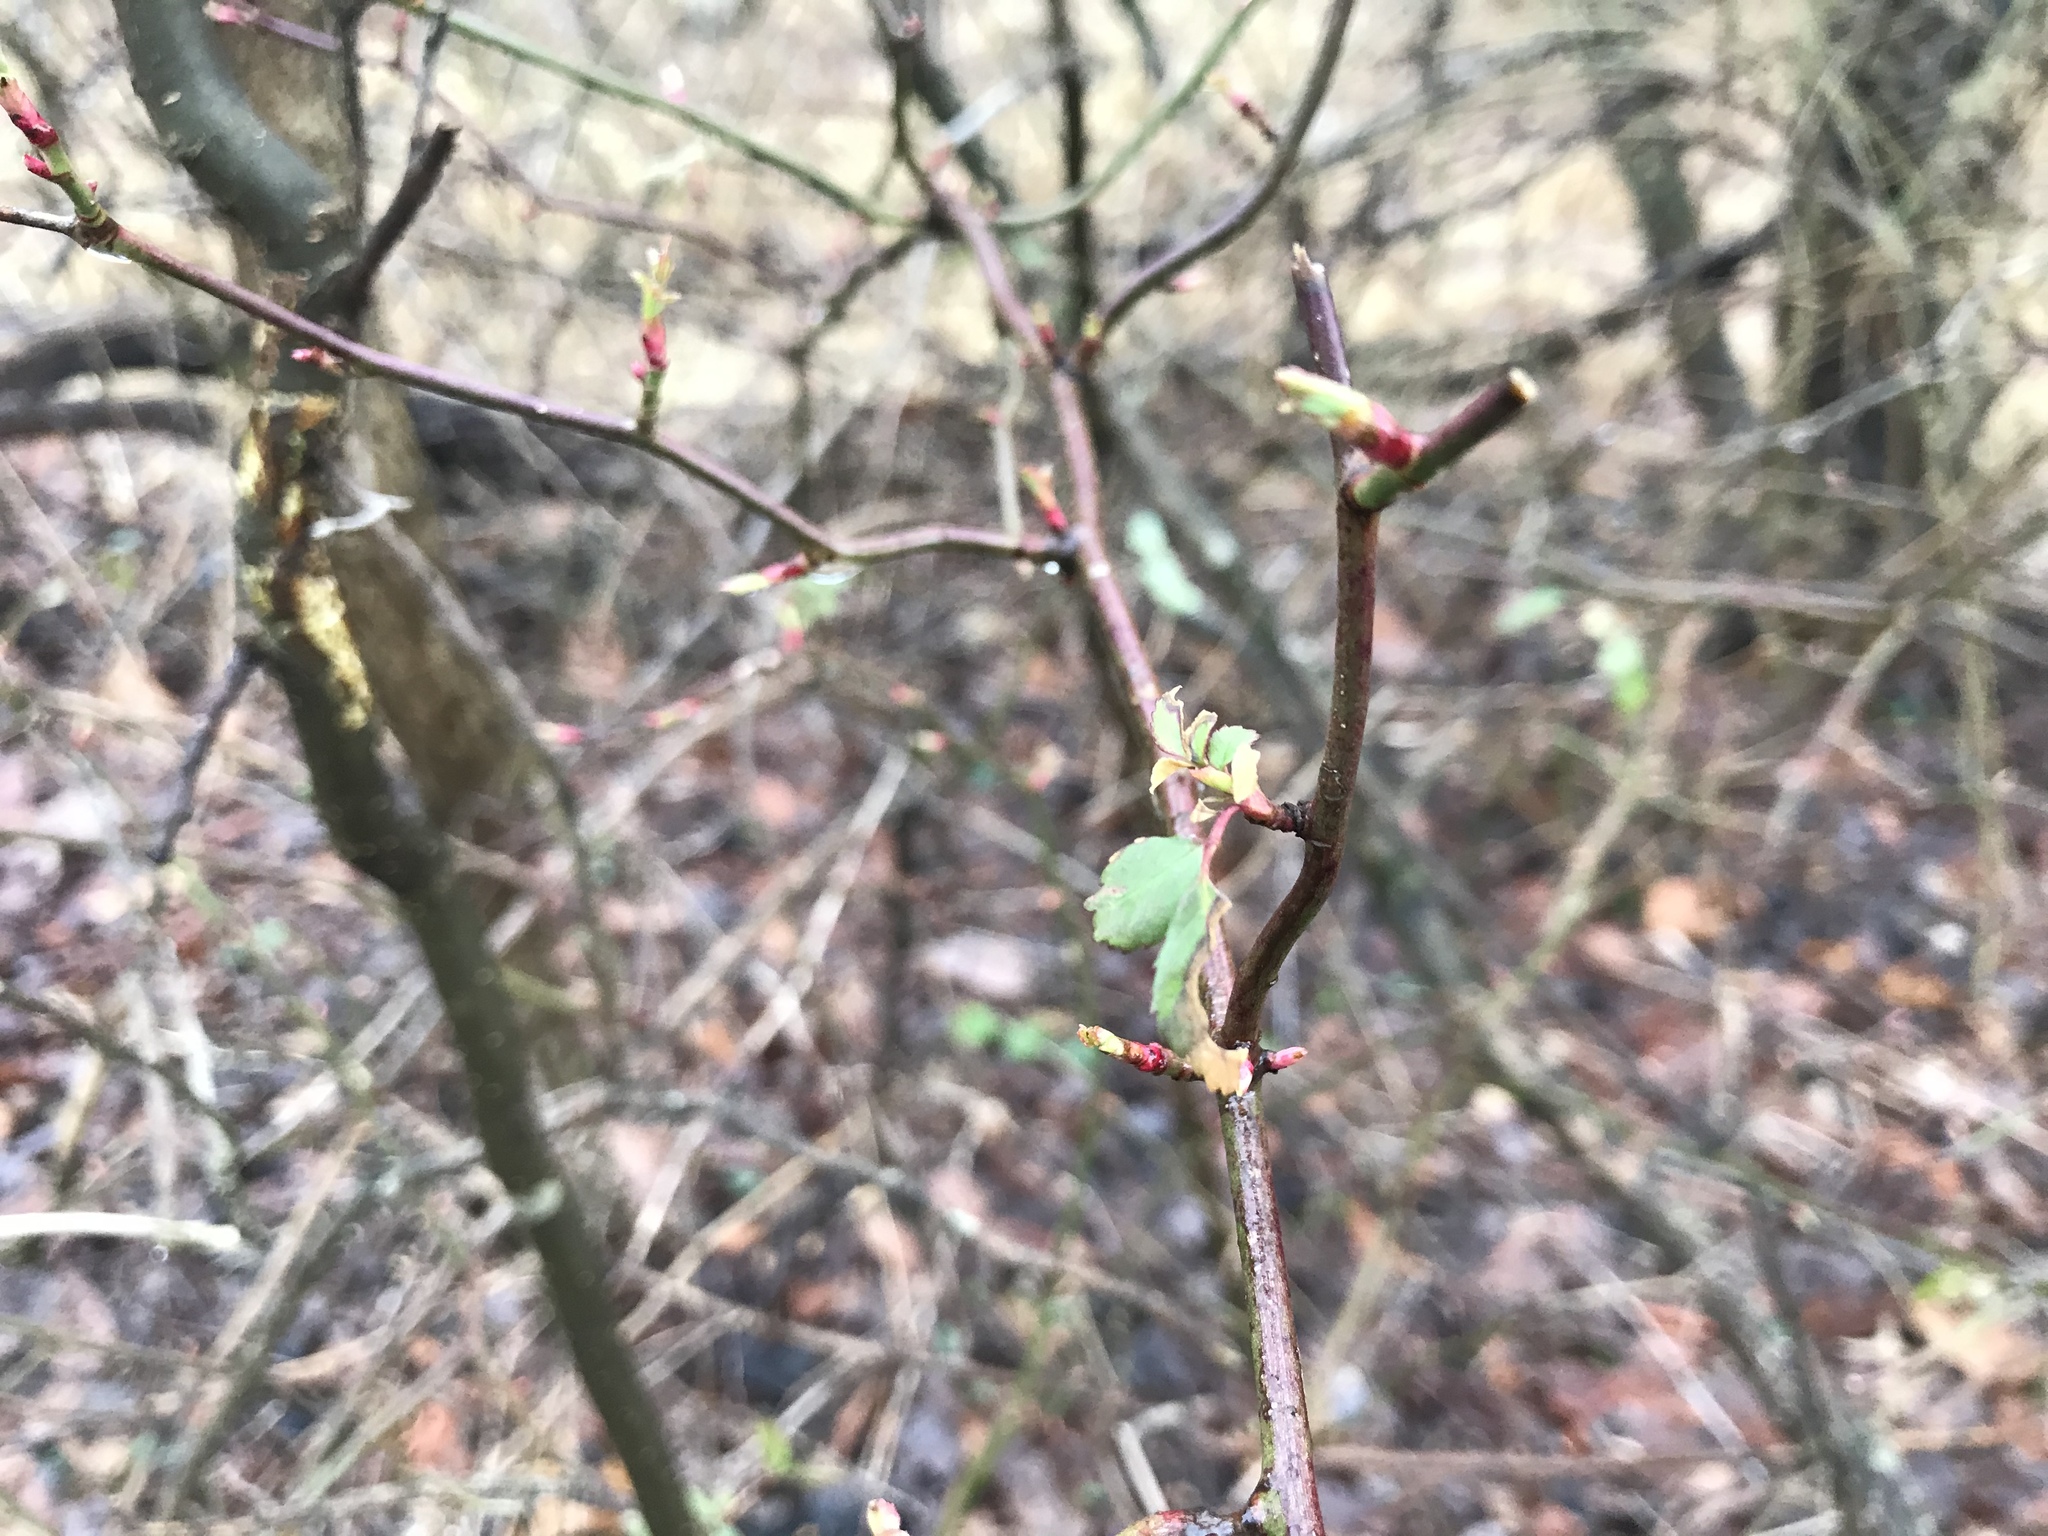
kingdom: Plantae
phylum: Tracheophyta
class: Magnoliopsida
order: Rosales
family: Rosaceae
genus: Rosa
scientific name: Rosa multiflora
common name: Multiflora rose
